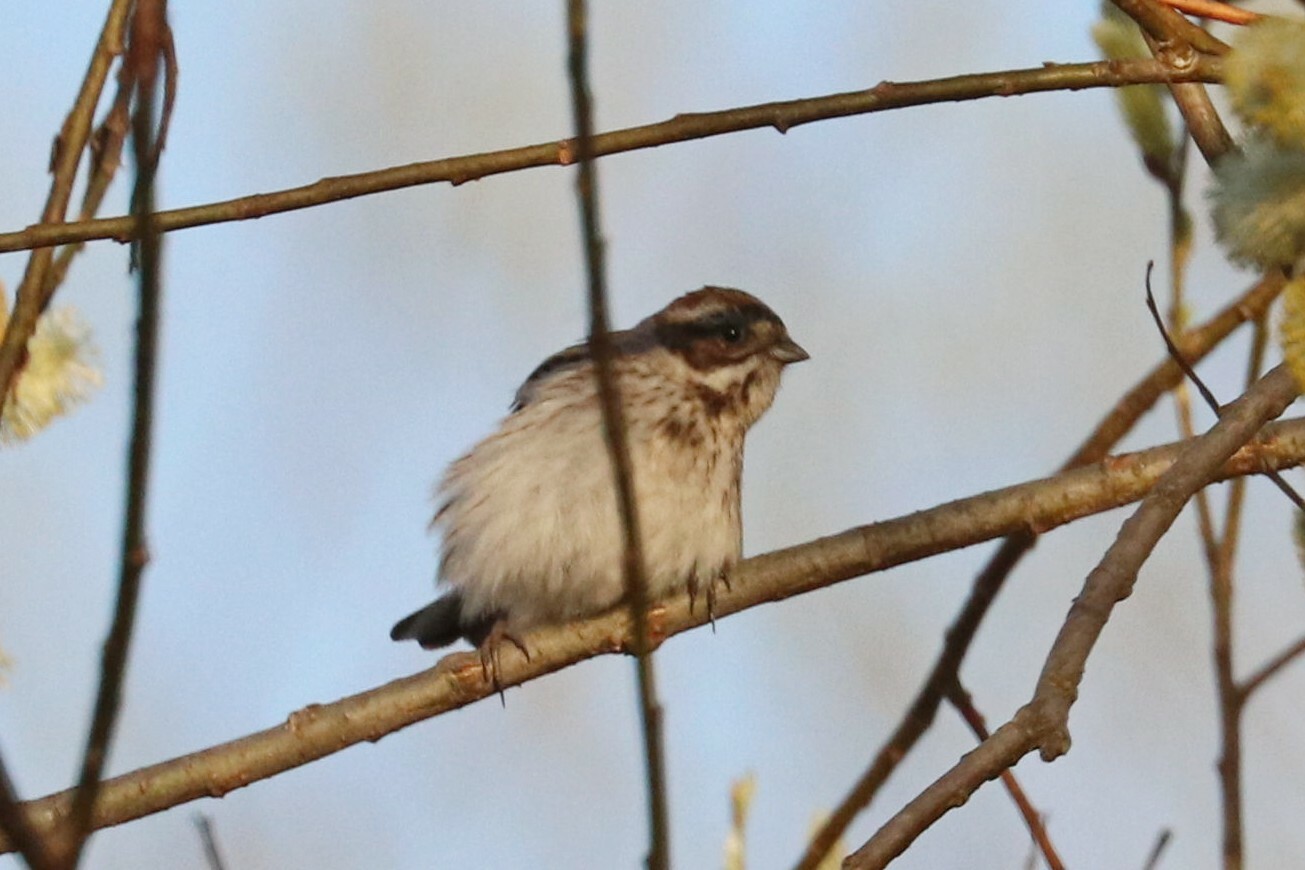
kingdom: Animalia
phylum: Chordata
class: Aves
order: Passeriformes
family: Emberizidae
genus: Emberiza
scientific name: Emberiza schoeniclus
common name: Reed bunting
